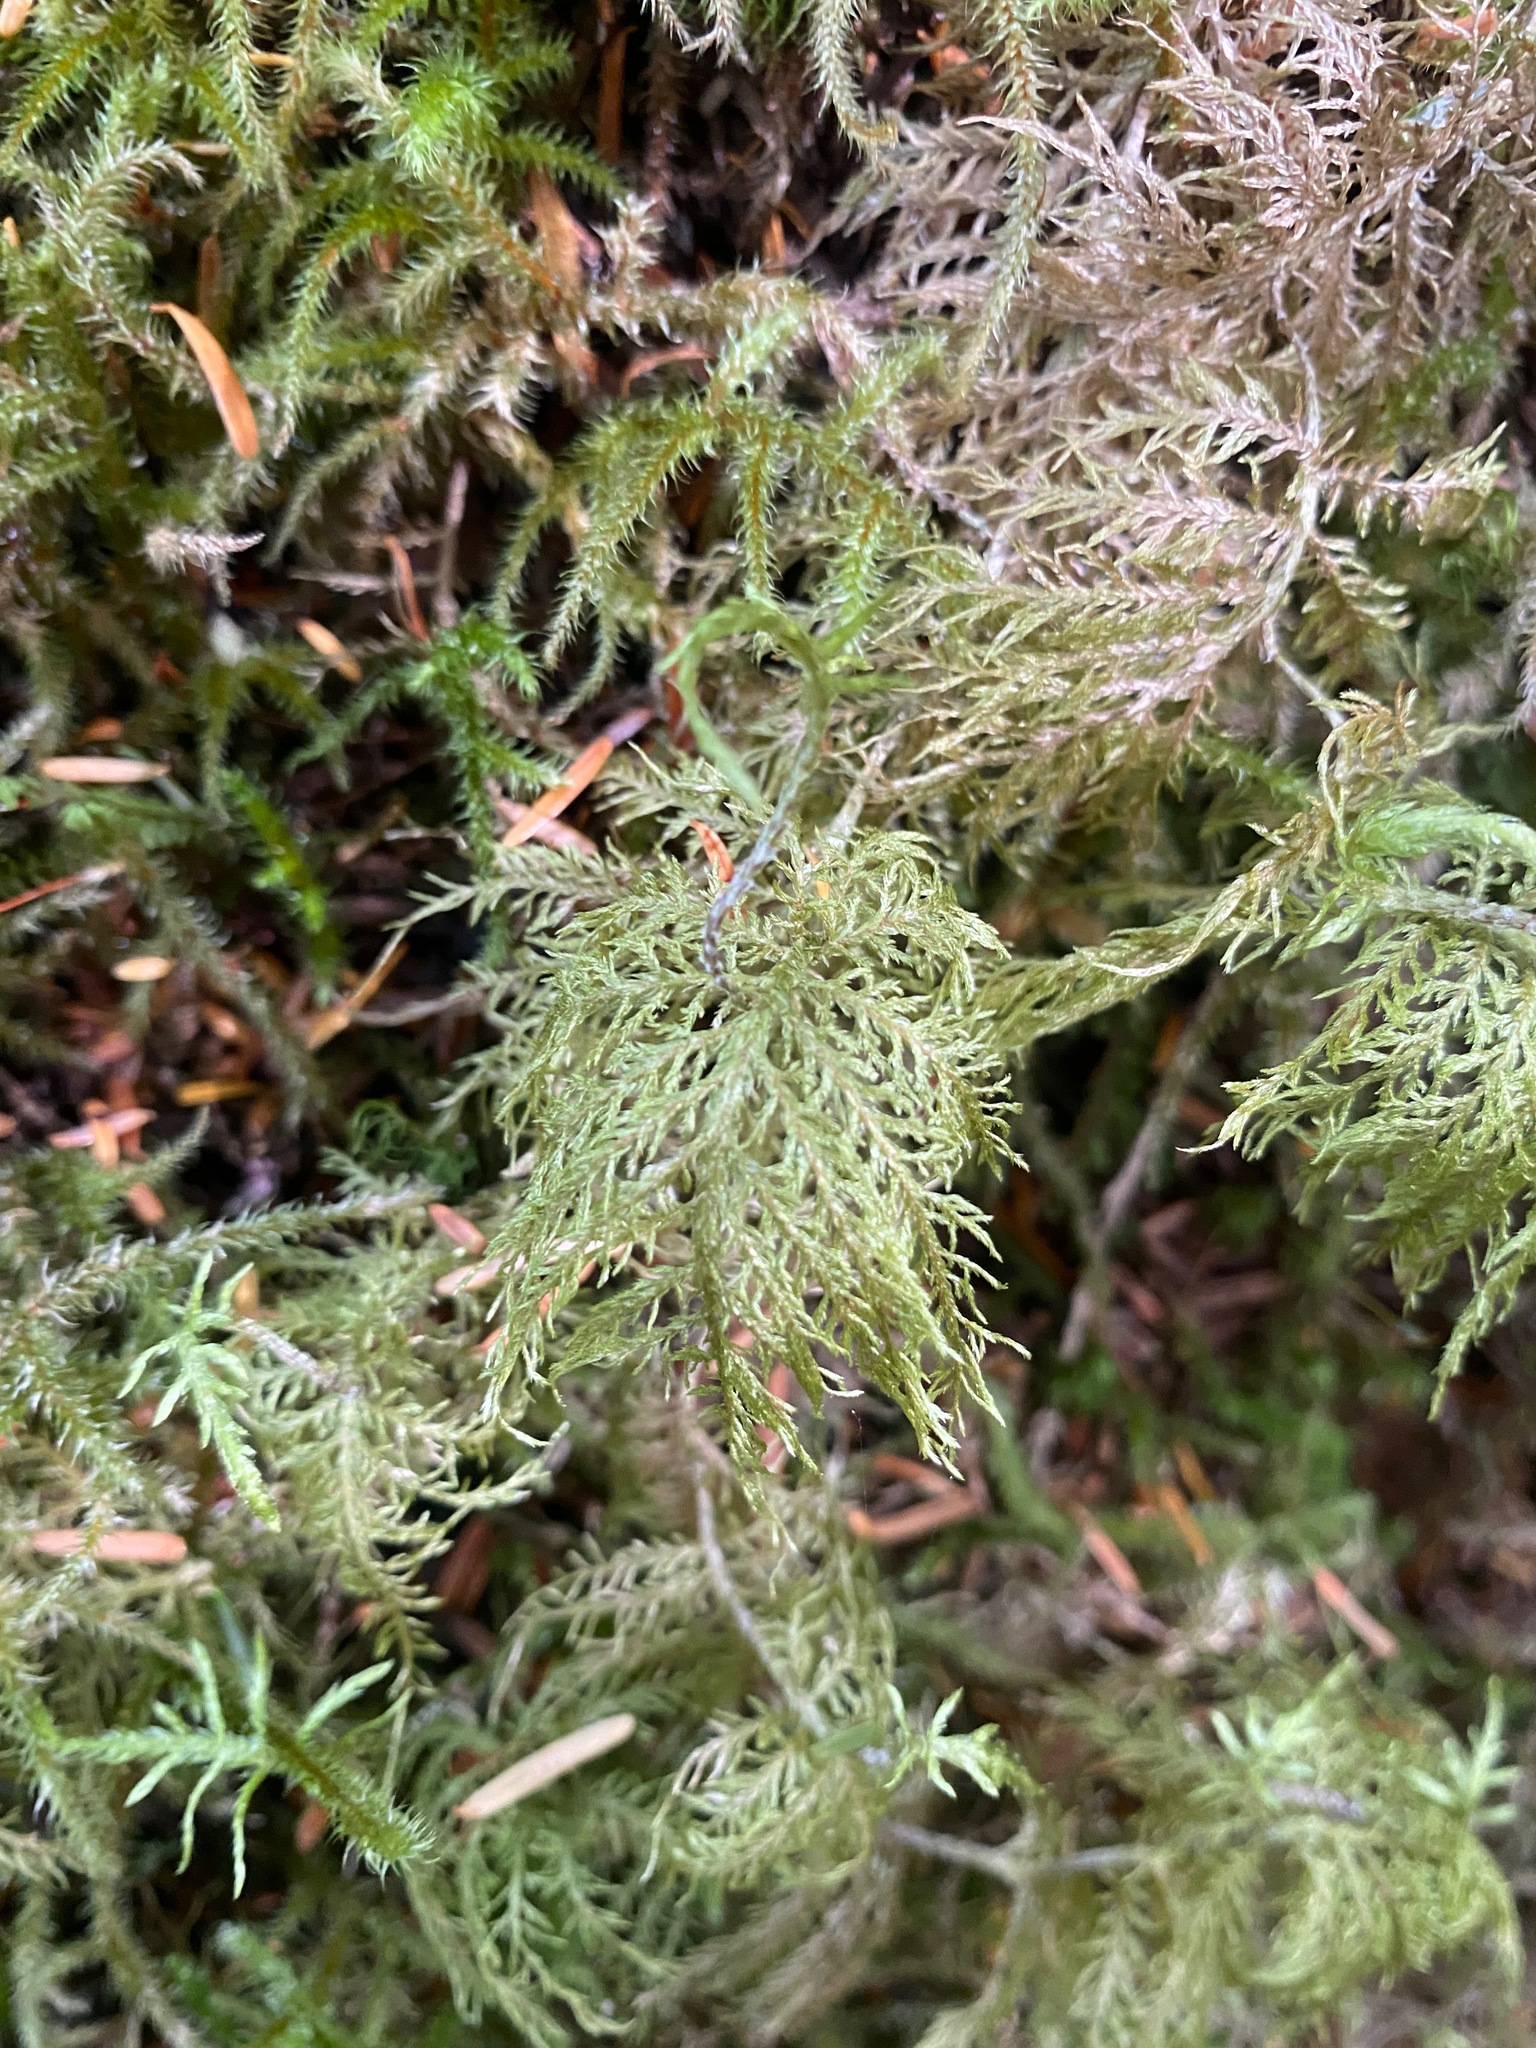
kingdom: Plantae
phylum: Bryophyta
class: Bryopsida
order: Hypnales
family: Hylocomiaceae
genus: Hylocomium
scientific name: Hylocomium splendens
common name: Stairstep moss
